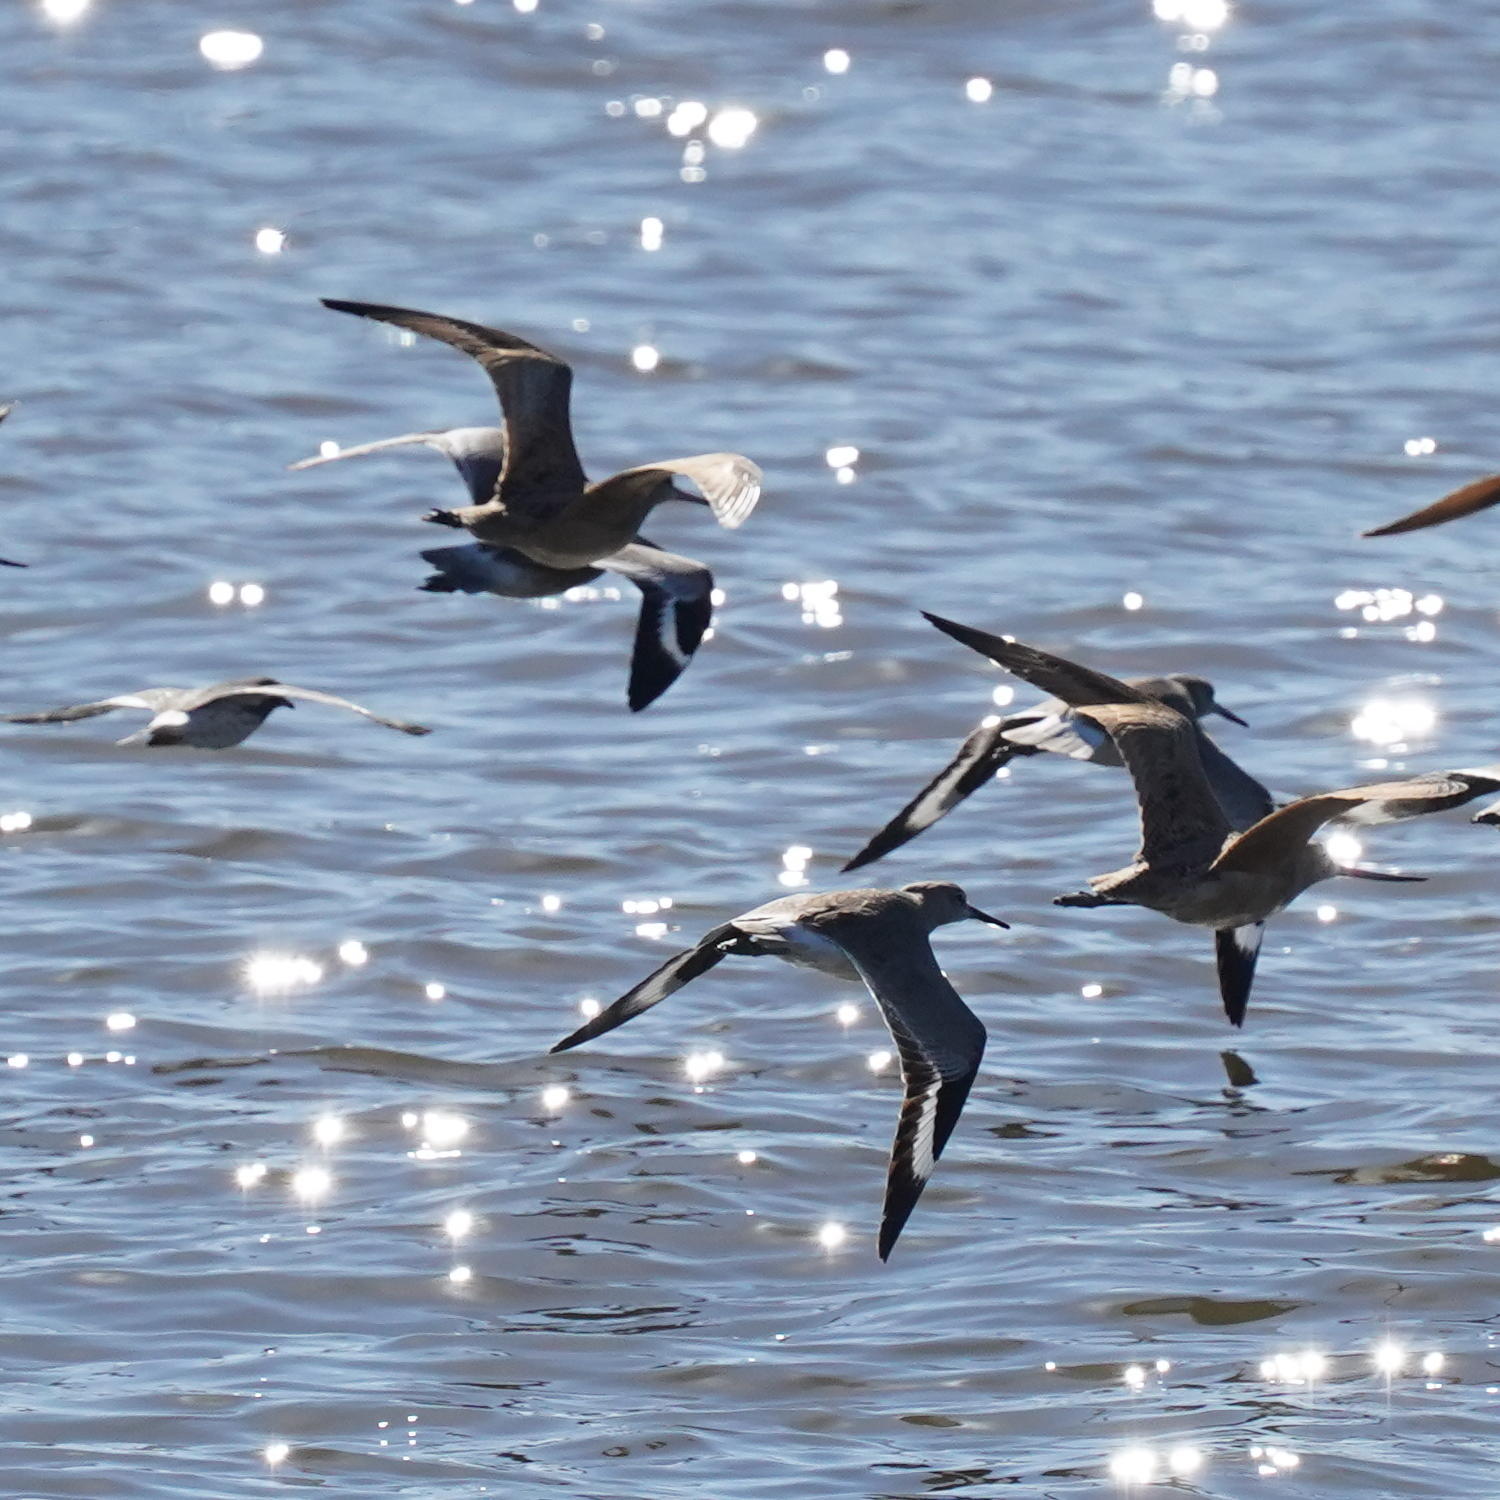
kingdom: Animalia
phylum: Chordata
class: Aves
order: Charadriiformes
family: Scolopacidae
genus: Limosa
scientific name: Limosa fedoa
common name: Marbled godwit
